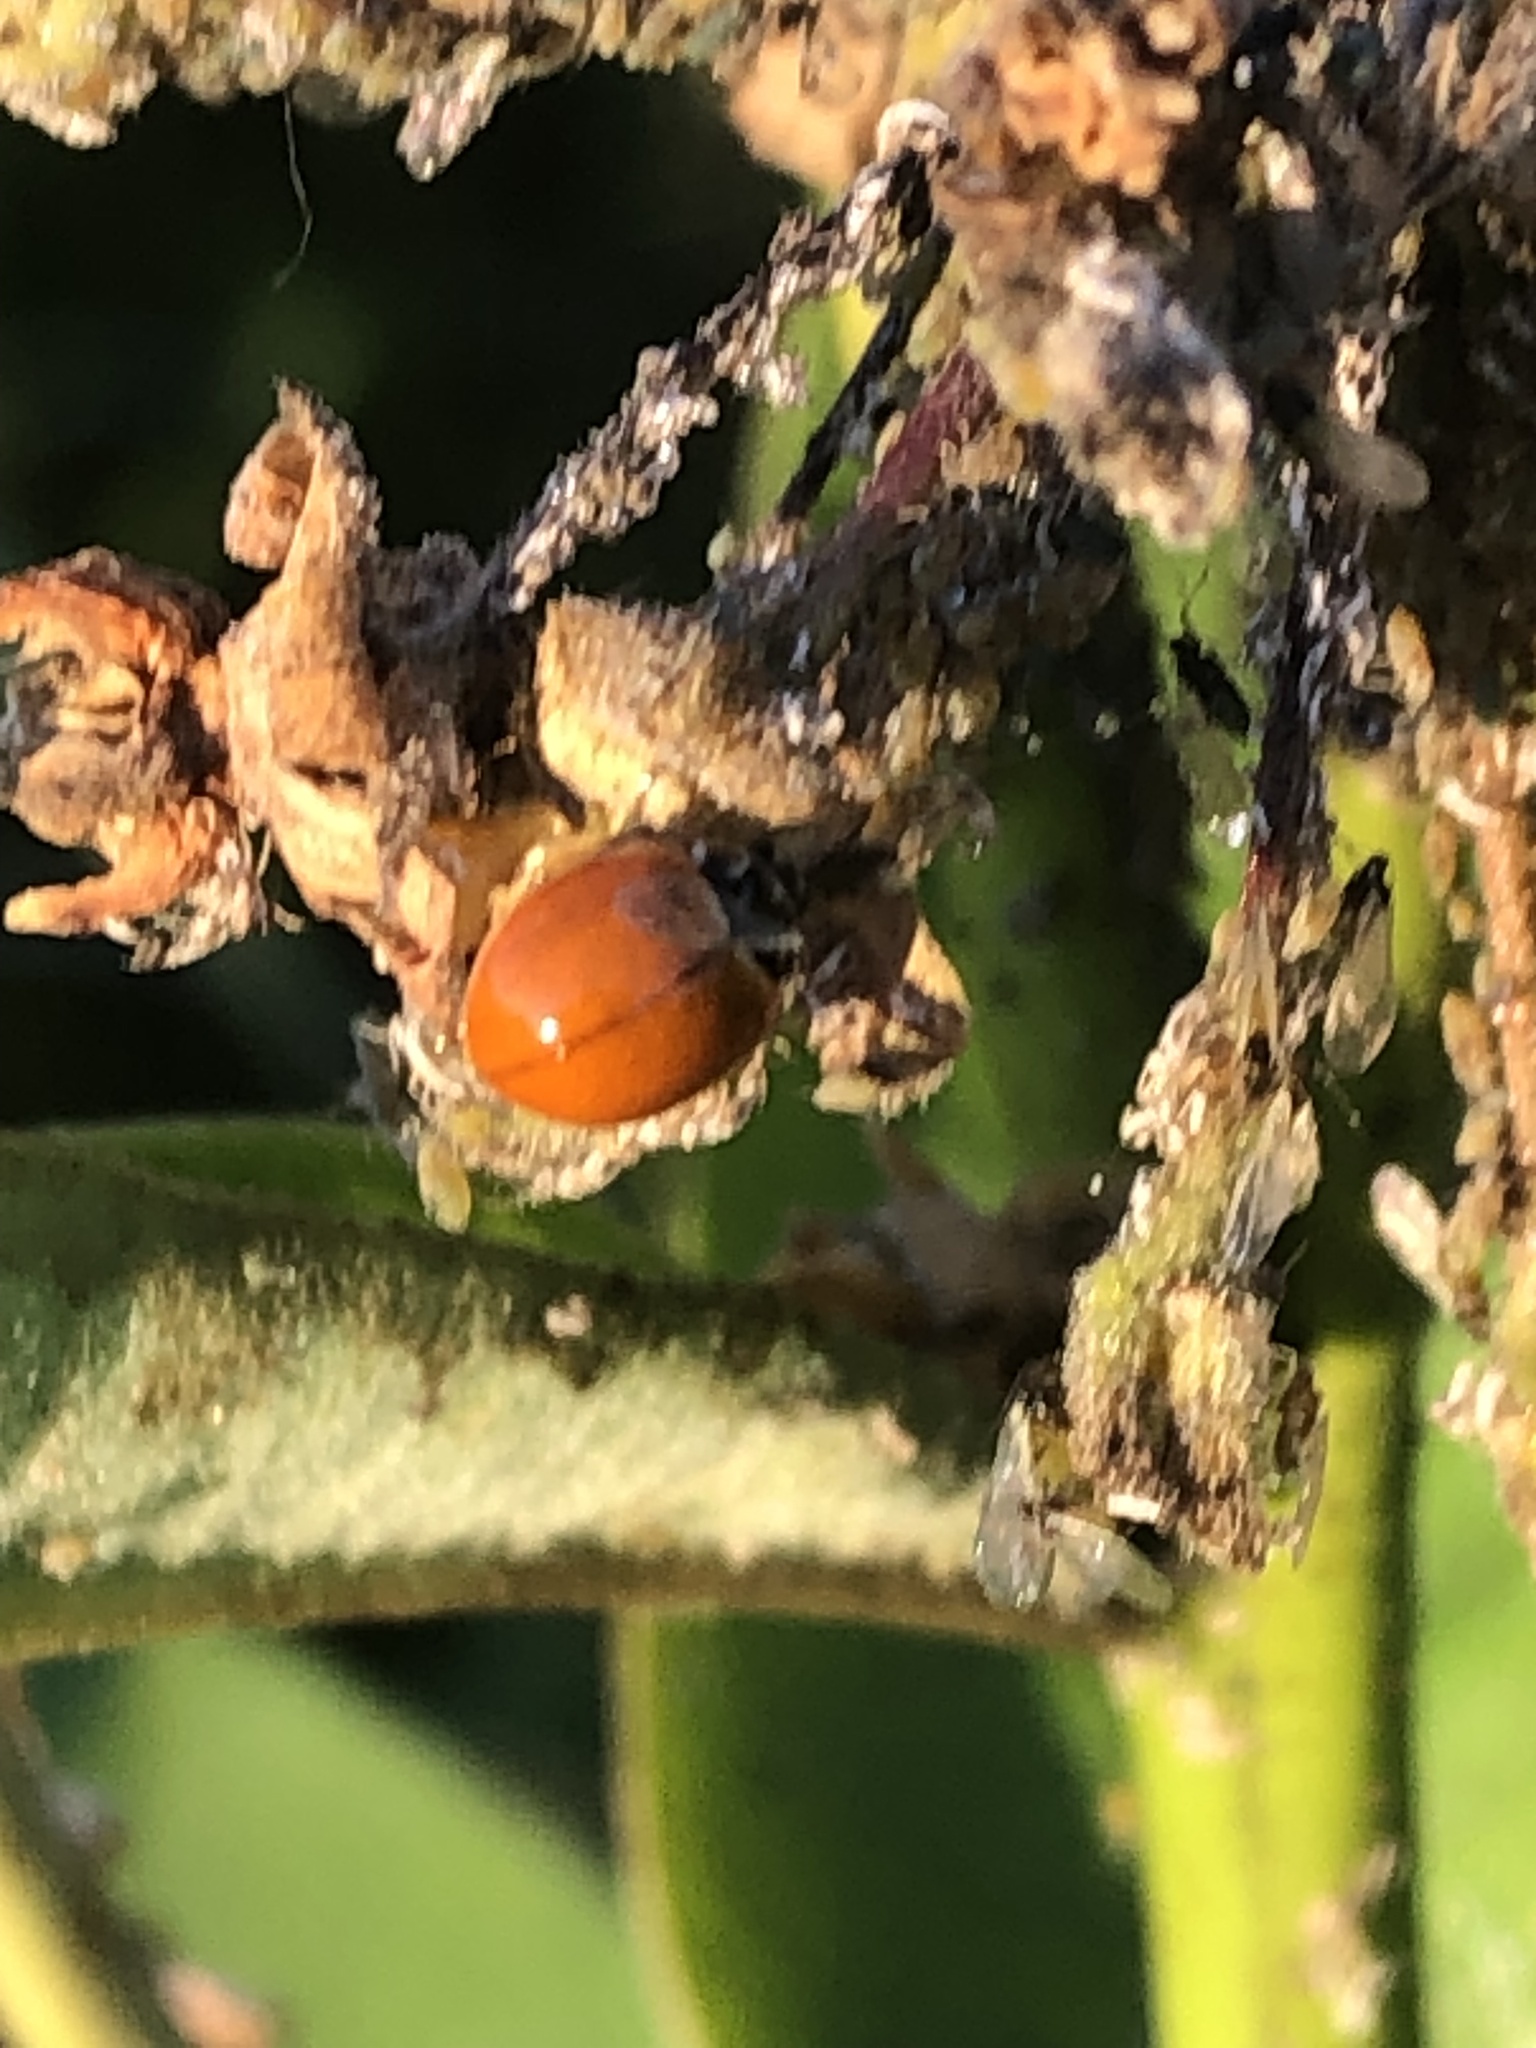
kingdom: Animalia
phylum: Arthropoda
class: Insecta
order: Coleoptera
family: Coccinellidae
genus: Cycloneda
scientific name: Cycloneda munda
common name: Polished lady beetle
